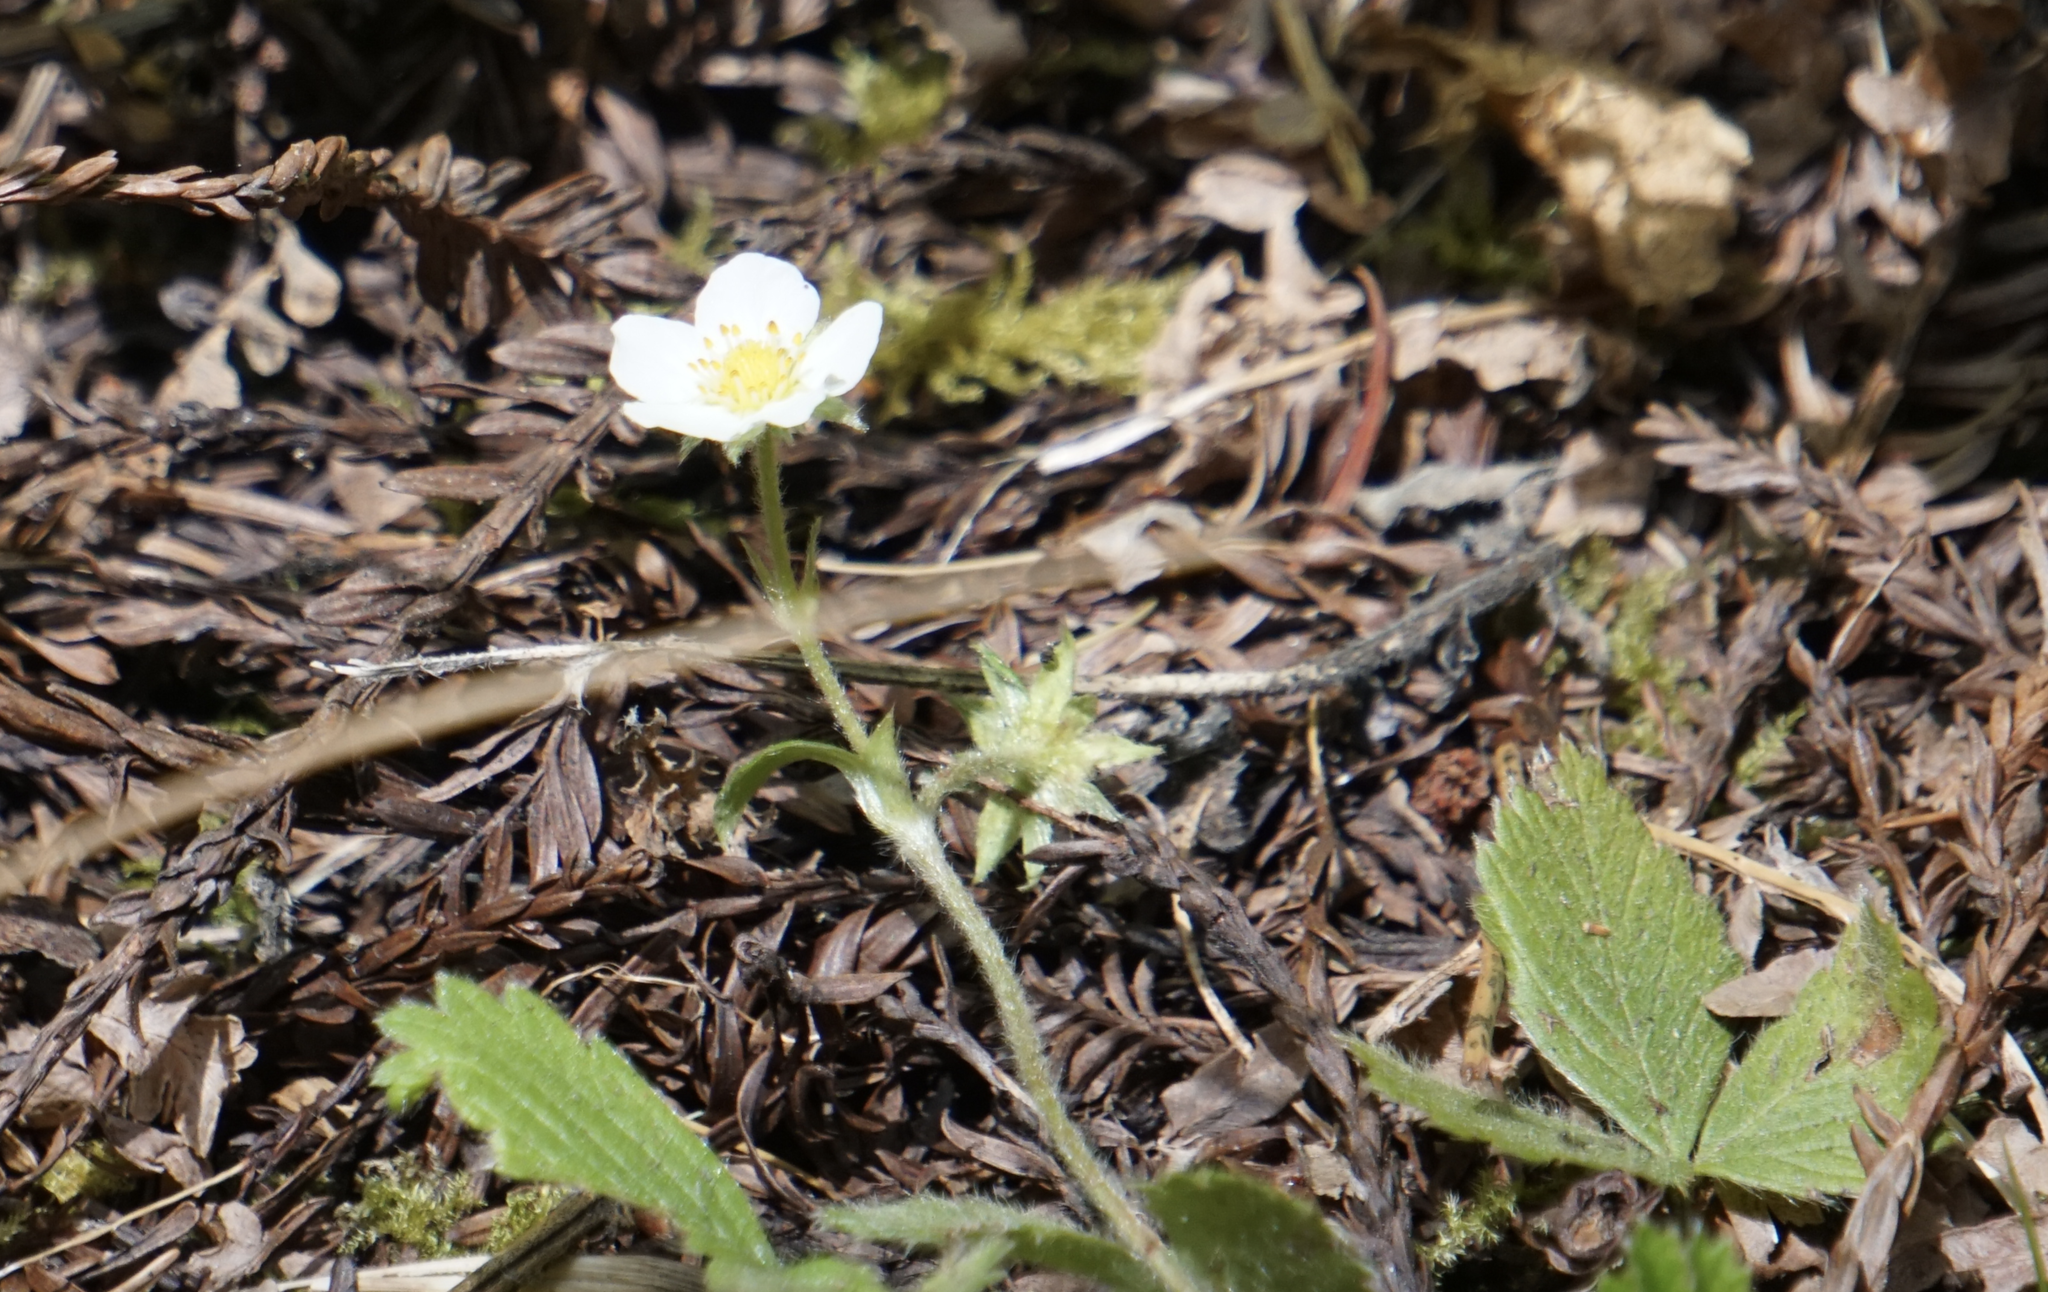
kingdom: Plantae
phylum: Tracheophyta
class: Magnoliopsida
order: Rosales
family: Rosaceae
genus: Fragaria
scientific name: Fragaria vesca
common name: Wild strawberry
